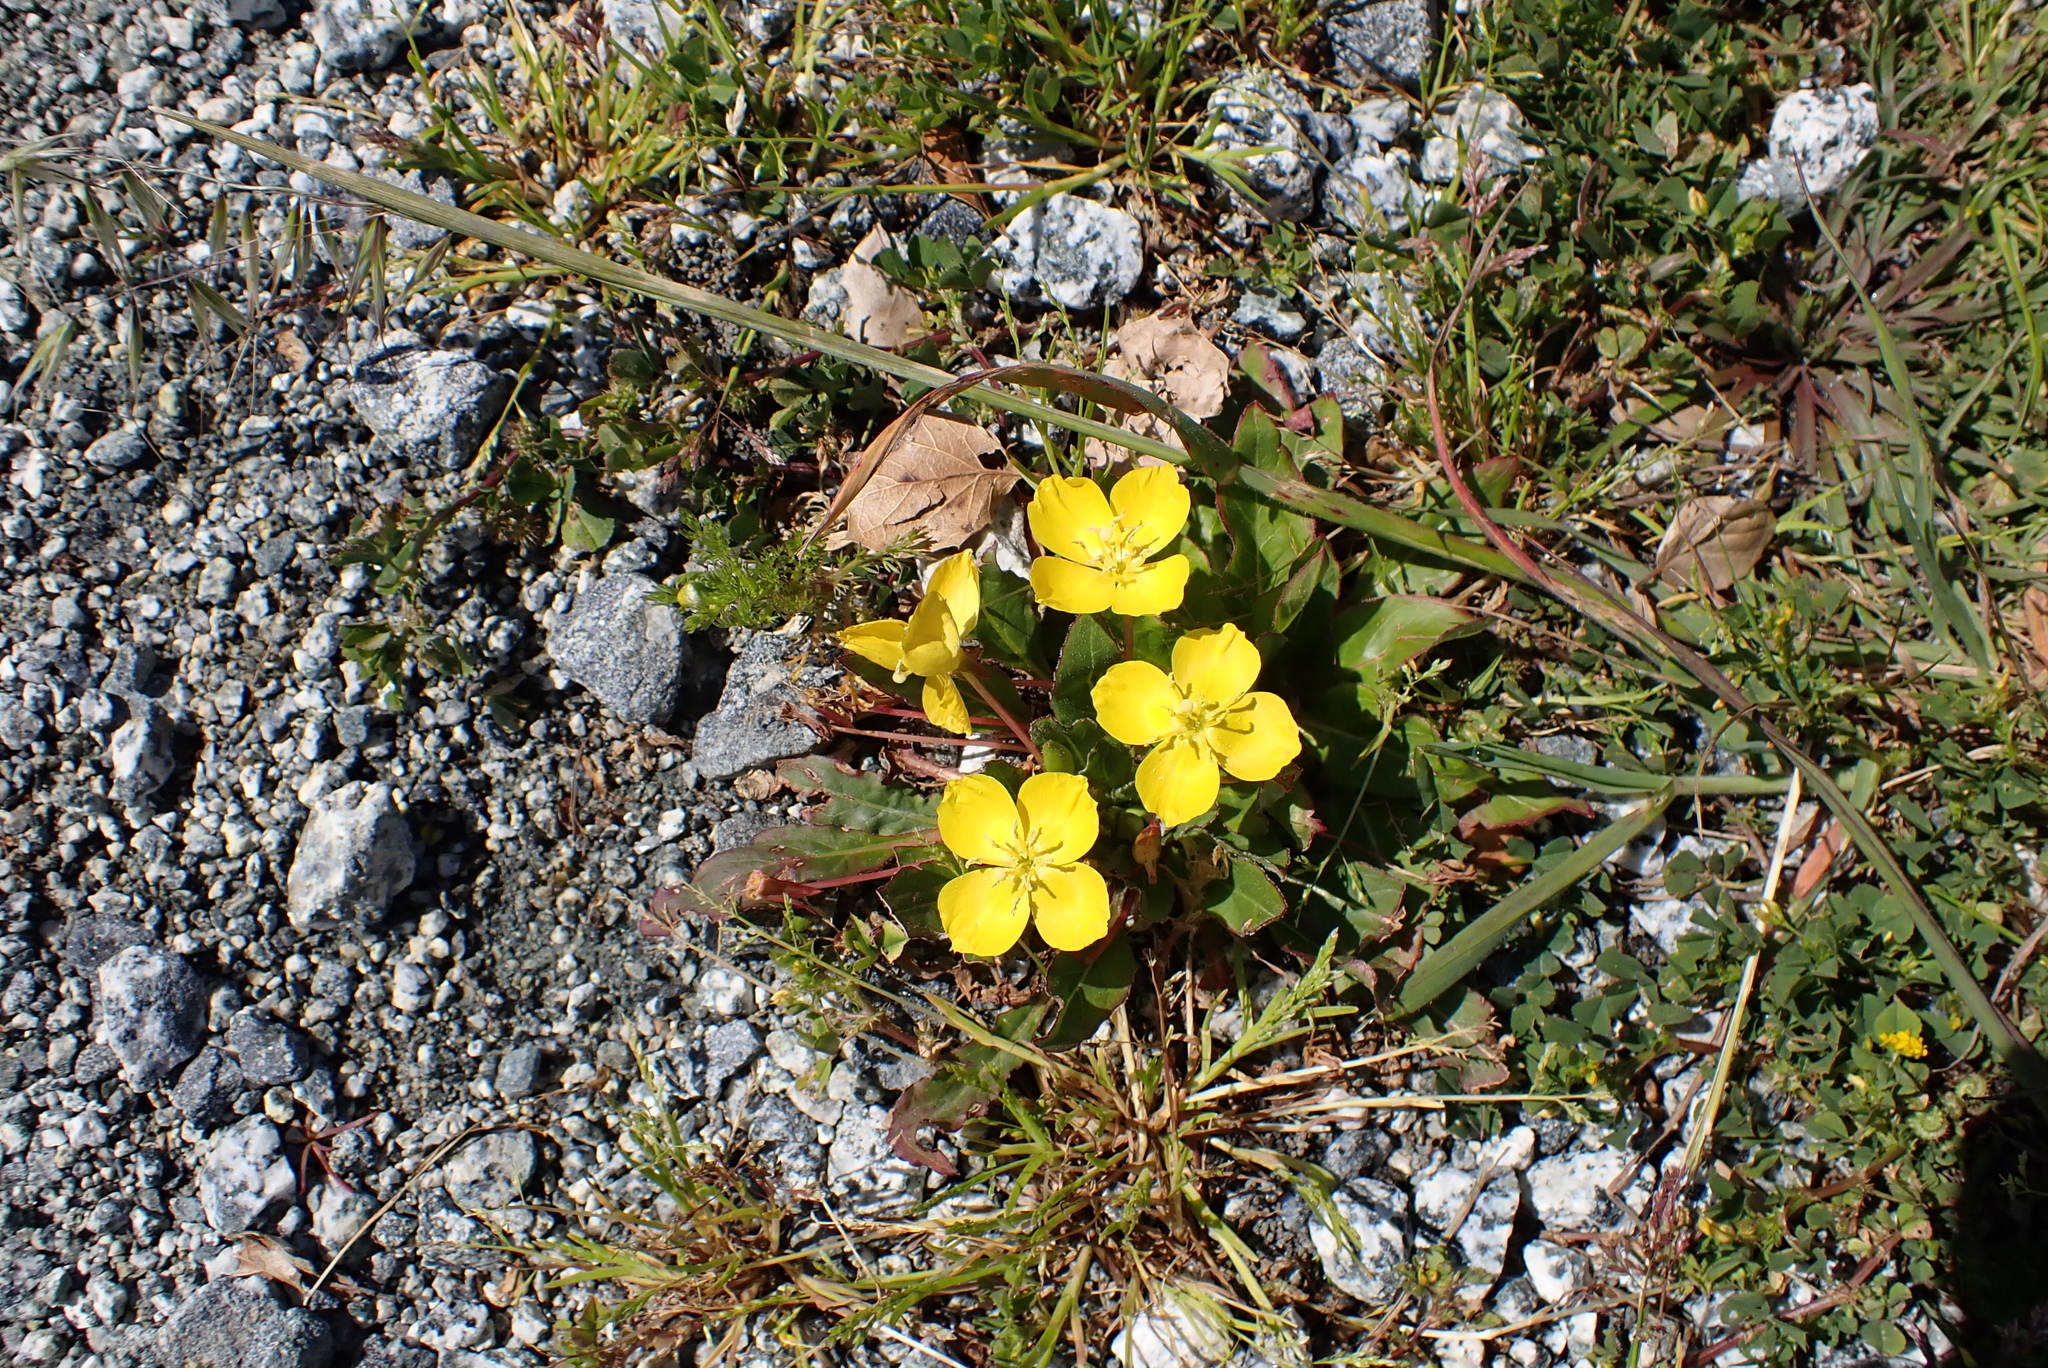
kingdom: Plantae
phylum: Tracheophyta
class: Magnoliopsida
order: Myrtales
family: Onagraceae
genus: Taraxia
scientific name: Taraxia ovata
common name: Goldeneggs
